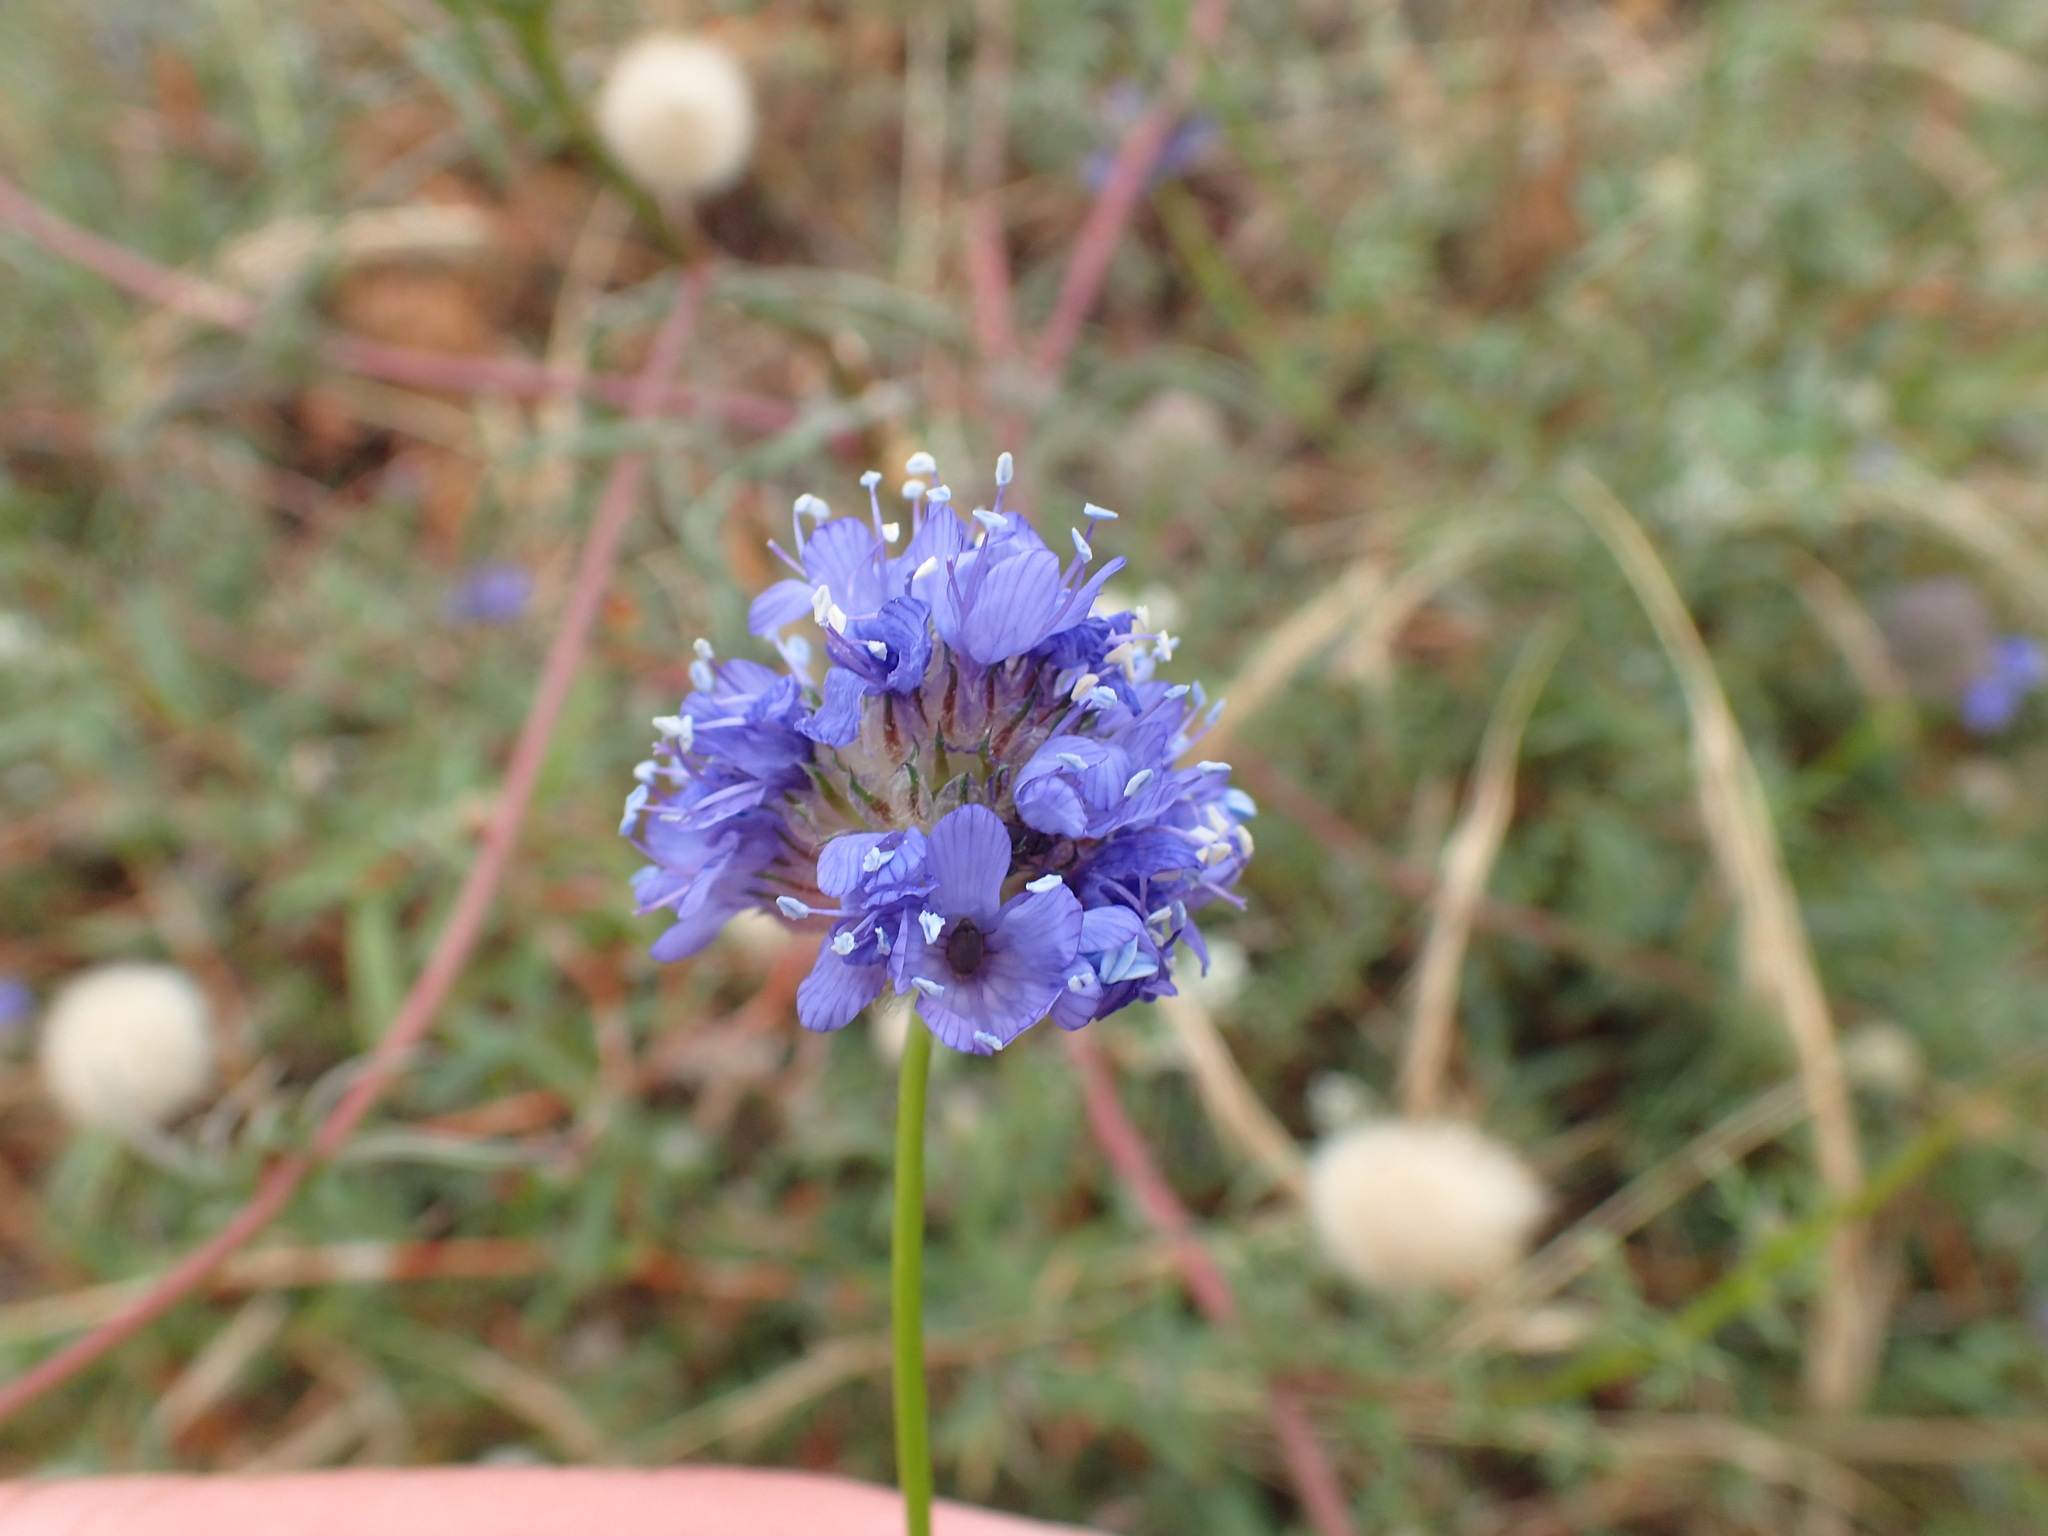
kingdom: Plantae
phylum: Tracheophyta
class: Magnoliopsida
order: Ericales
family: Polemoniaceae
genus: Gilia
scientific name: Gilia capitata
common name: Bluehead gilia
